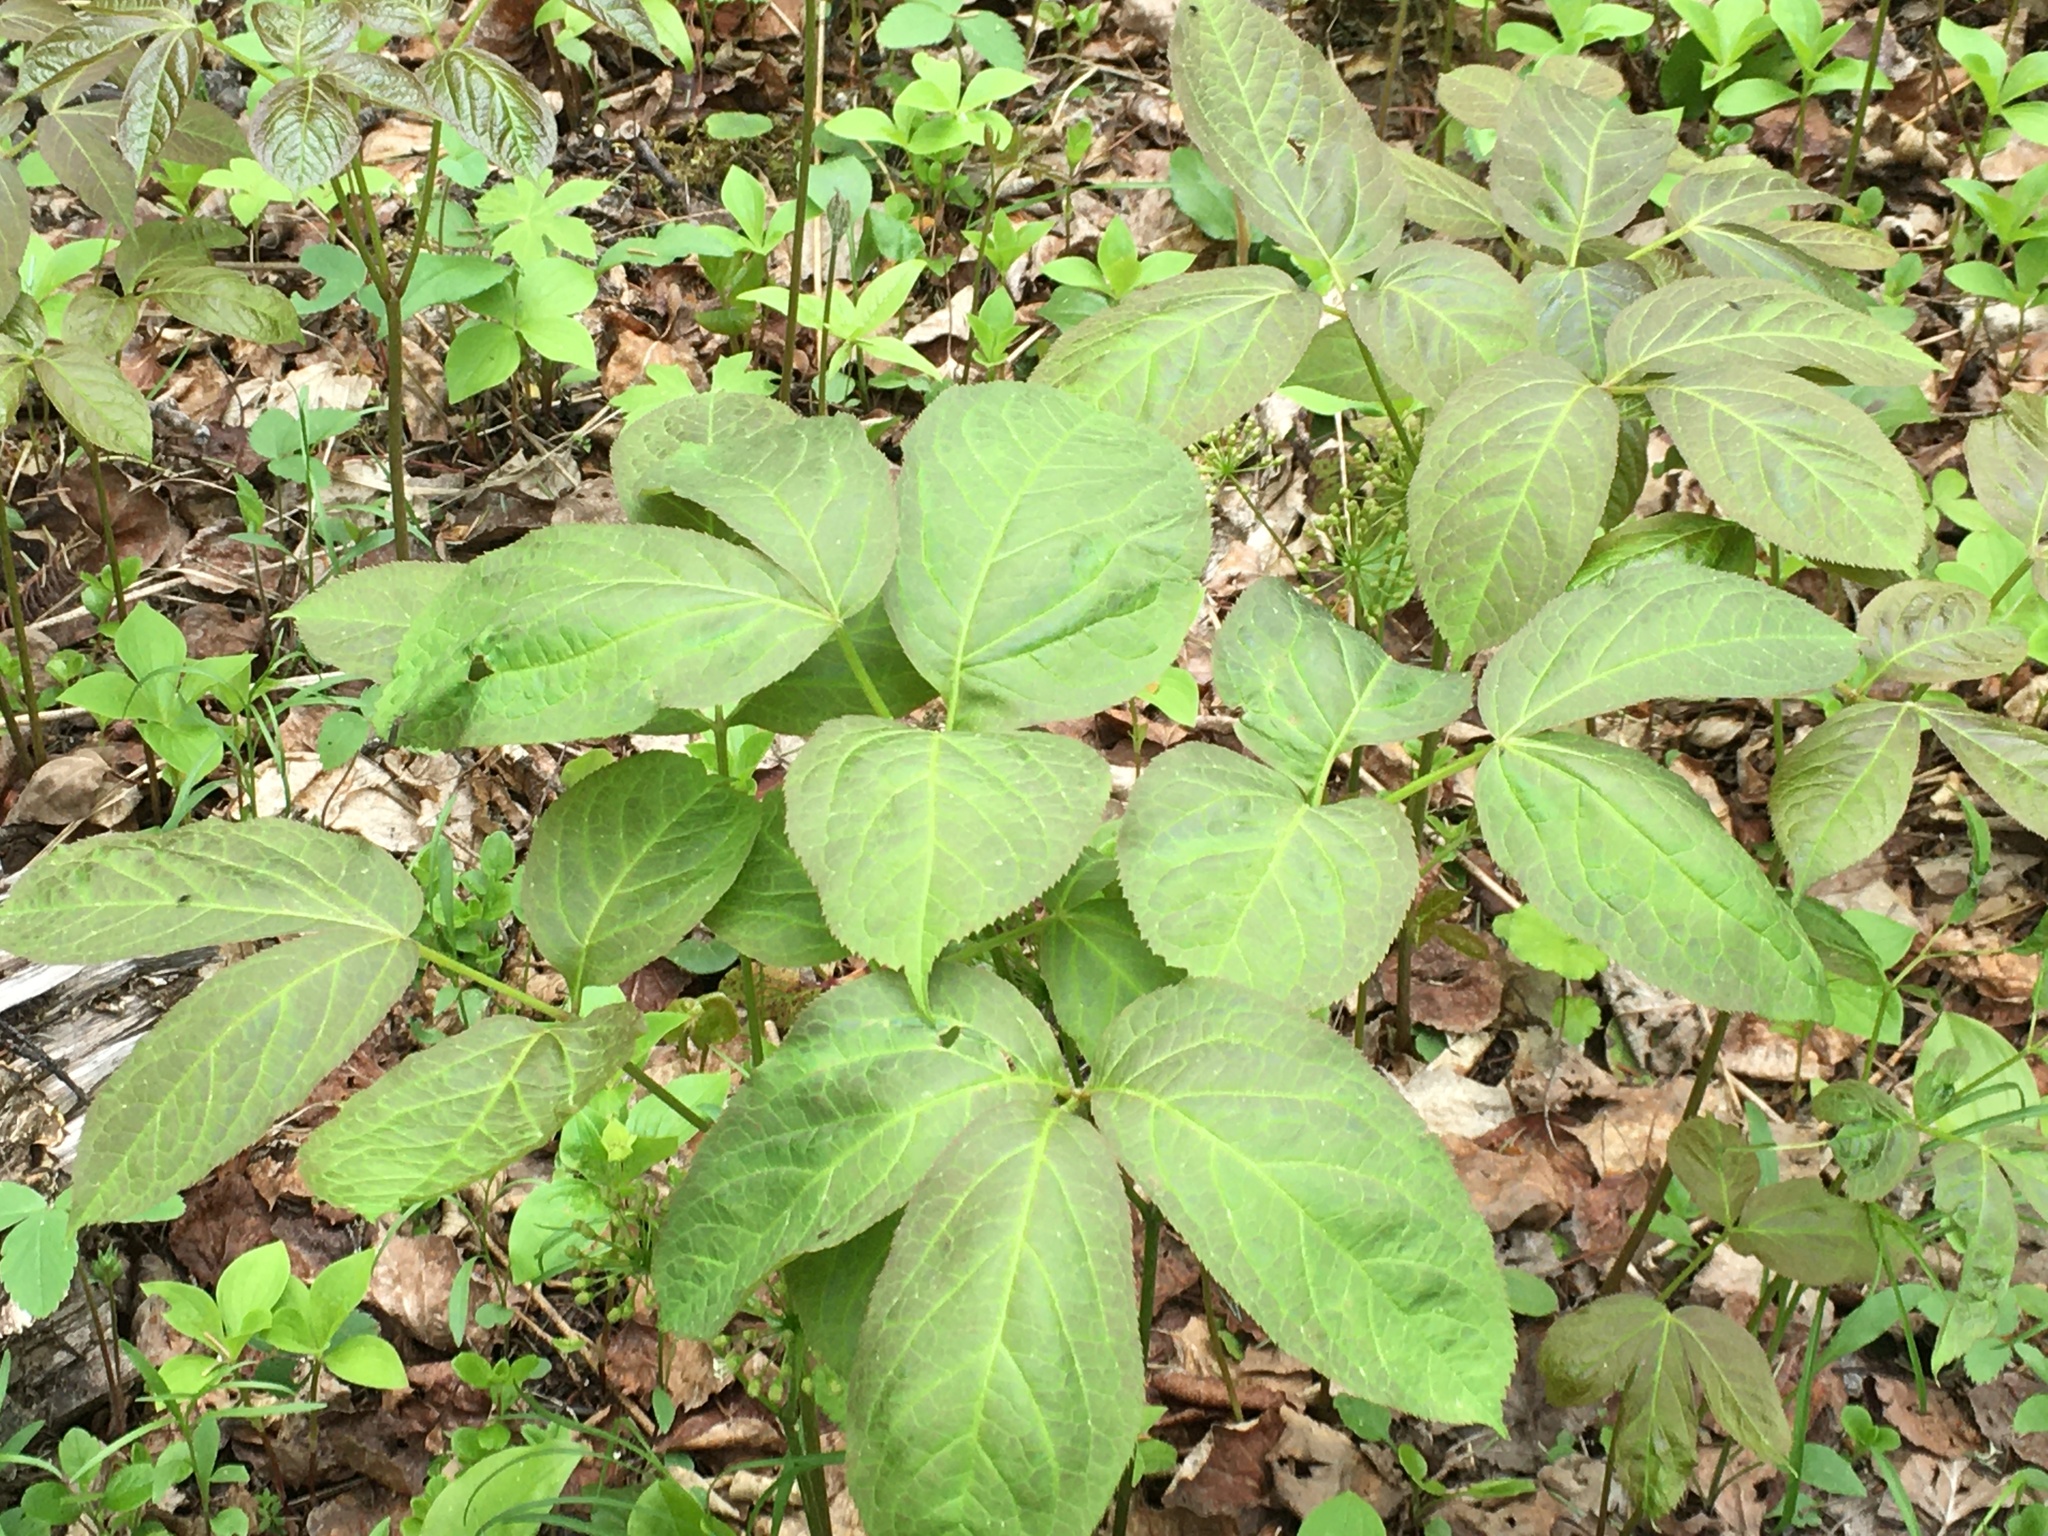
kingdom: Plantae
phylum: Tracheophyta
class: Magnoliopsida
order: Apiales
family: Araliaceae
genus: Aralia
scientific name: Aralia nudicaulis
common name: Wild sarsaparilla
